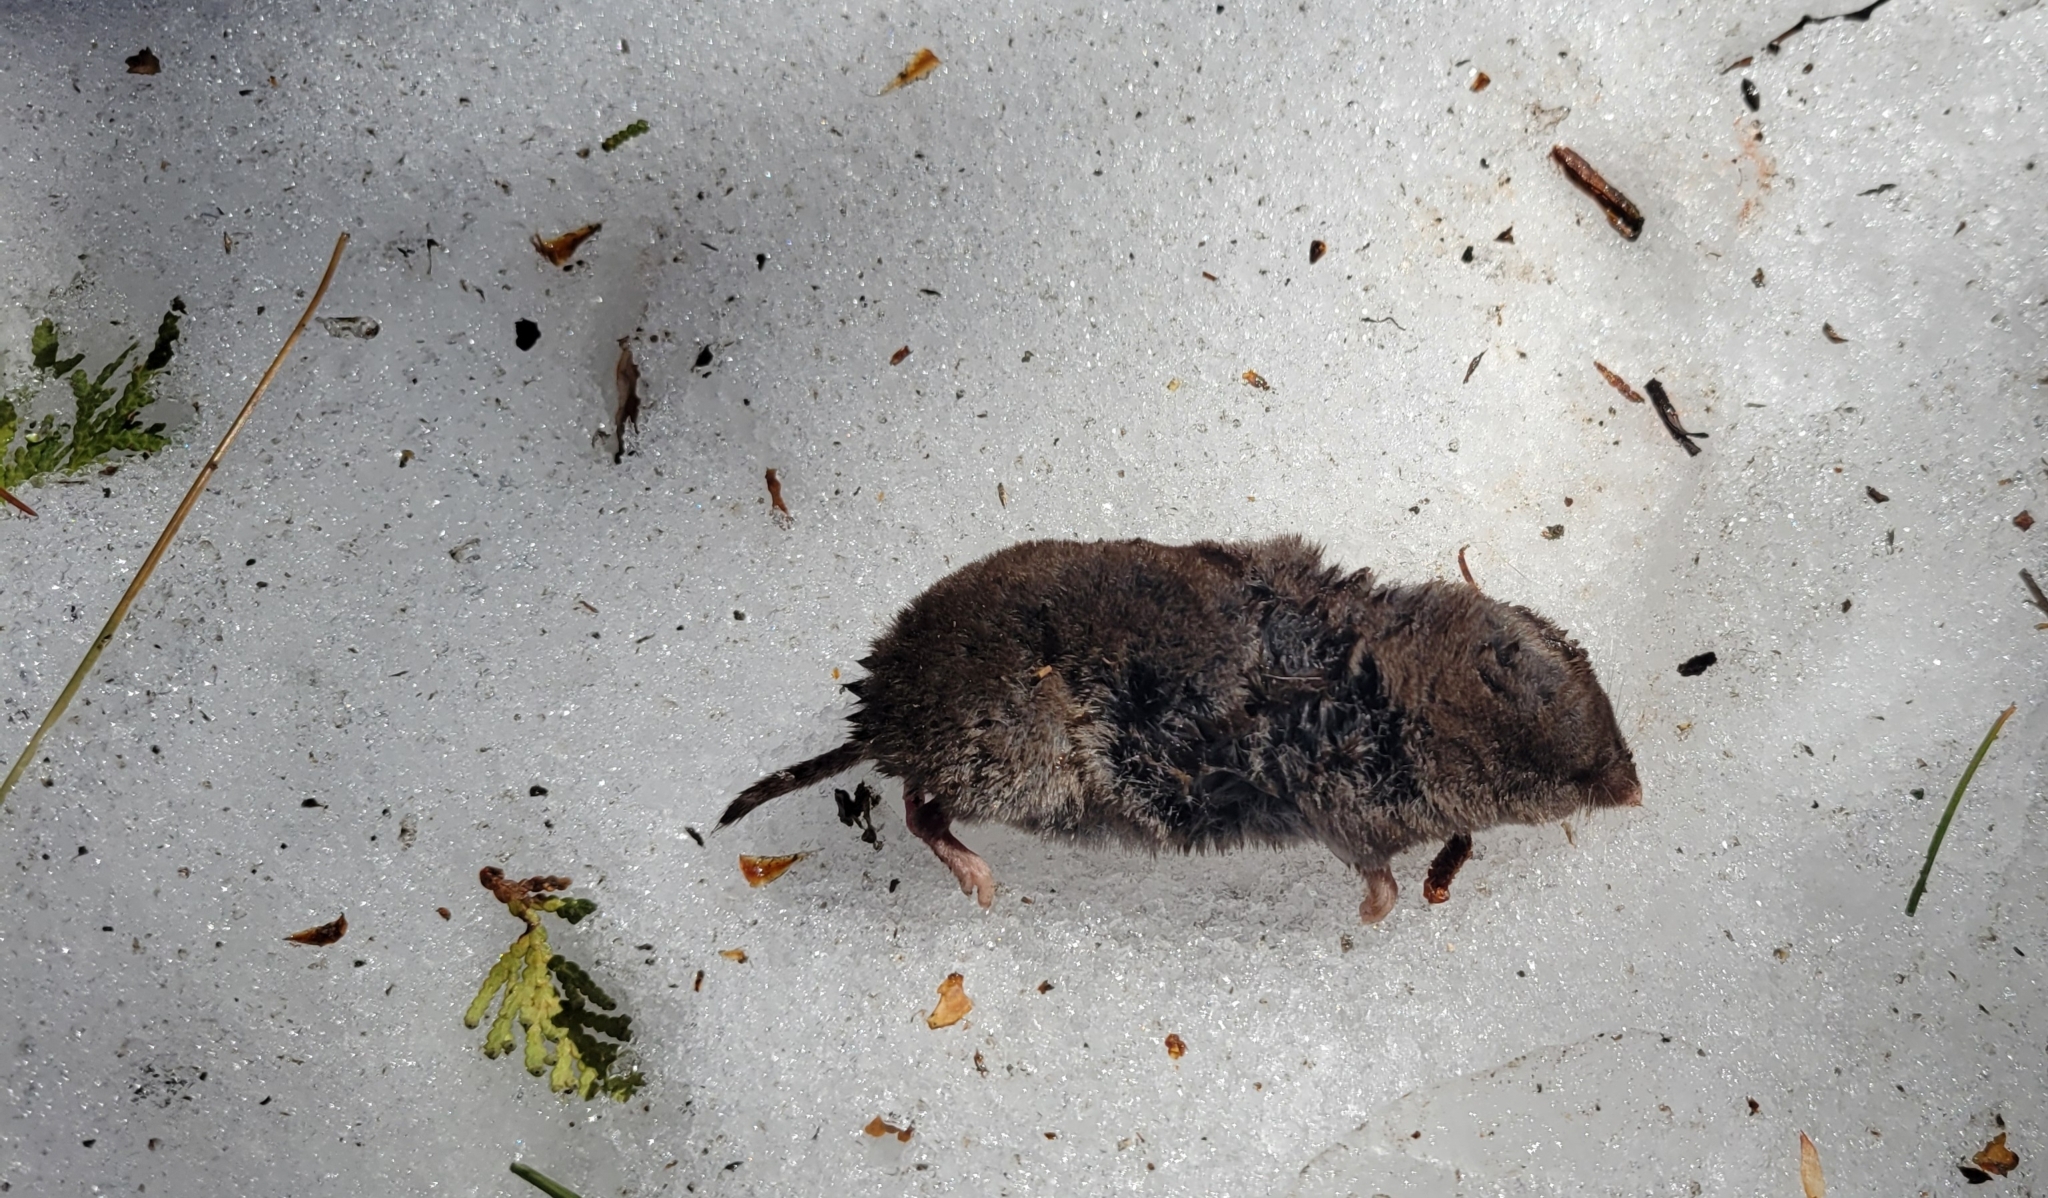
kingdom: Animalia
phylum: Chordata
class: Mammalia
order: Soricomorpha
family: Soricidae
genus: Blarina
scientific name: Blarina brevicauda
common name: Northern short-tailed shrew
